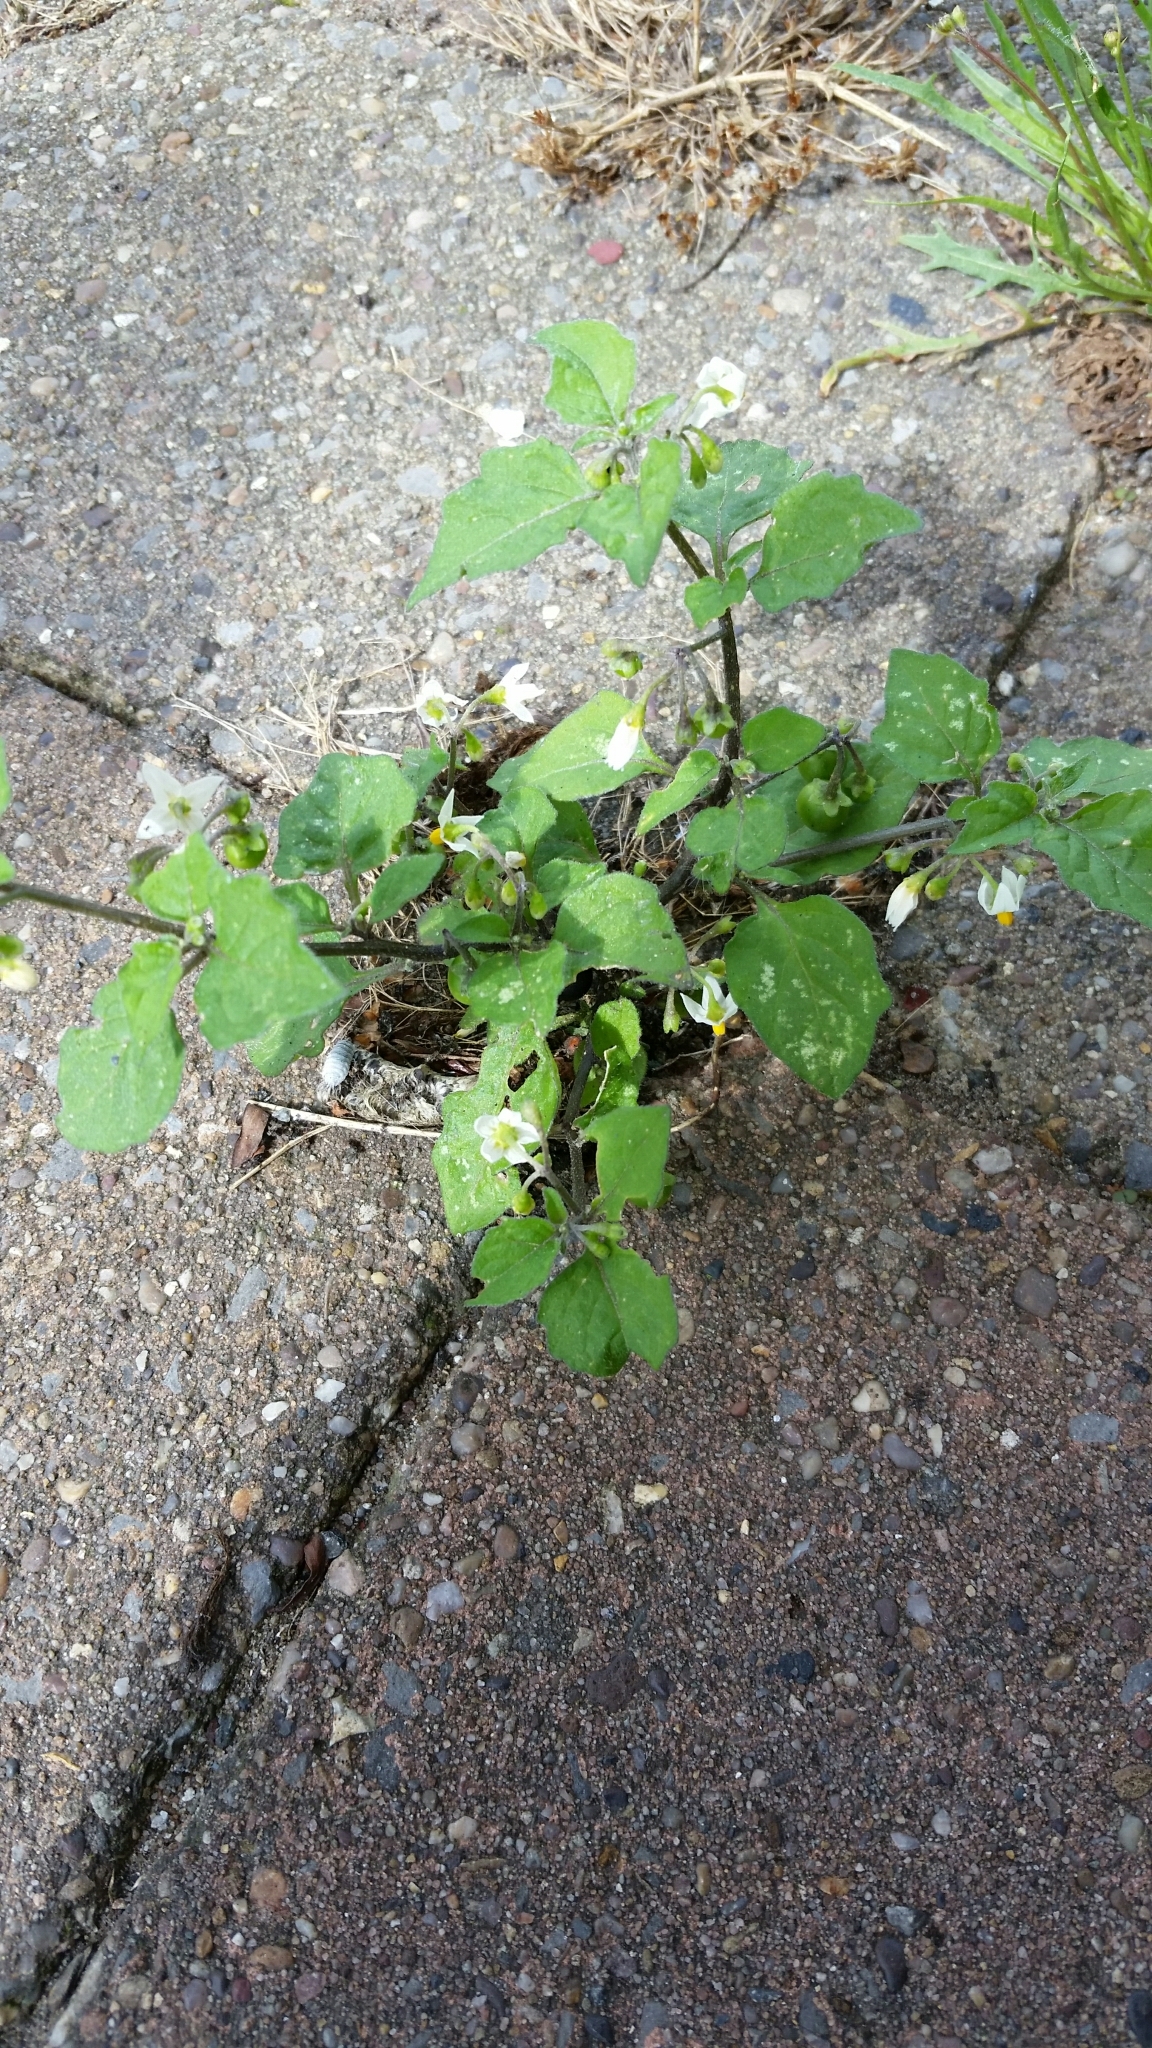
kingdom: Plantae
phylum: Tracheophyta
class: Magnoliopsida
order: Solanales
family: Solanaceae
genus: Solanum
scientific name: Solanum nigrum
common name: Black nightshade
